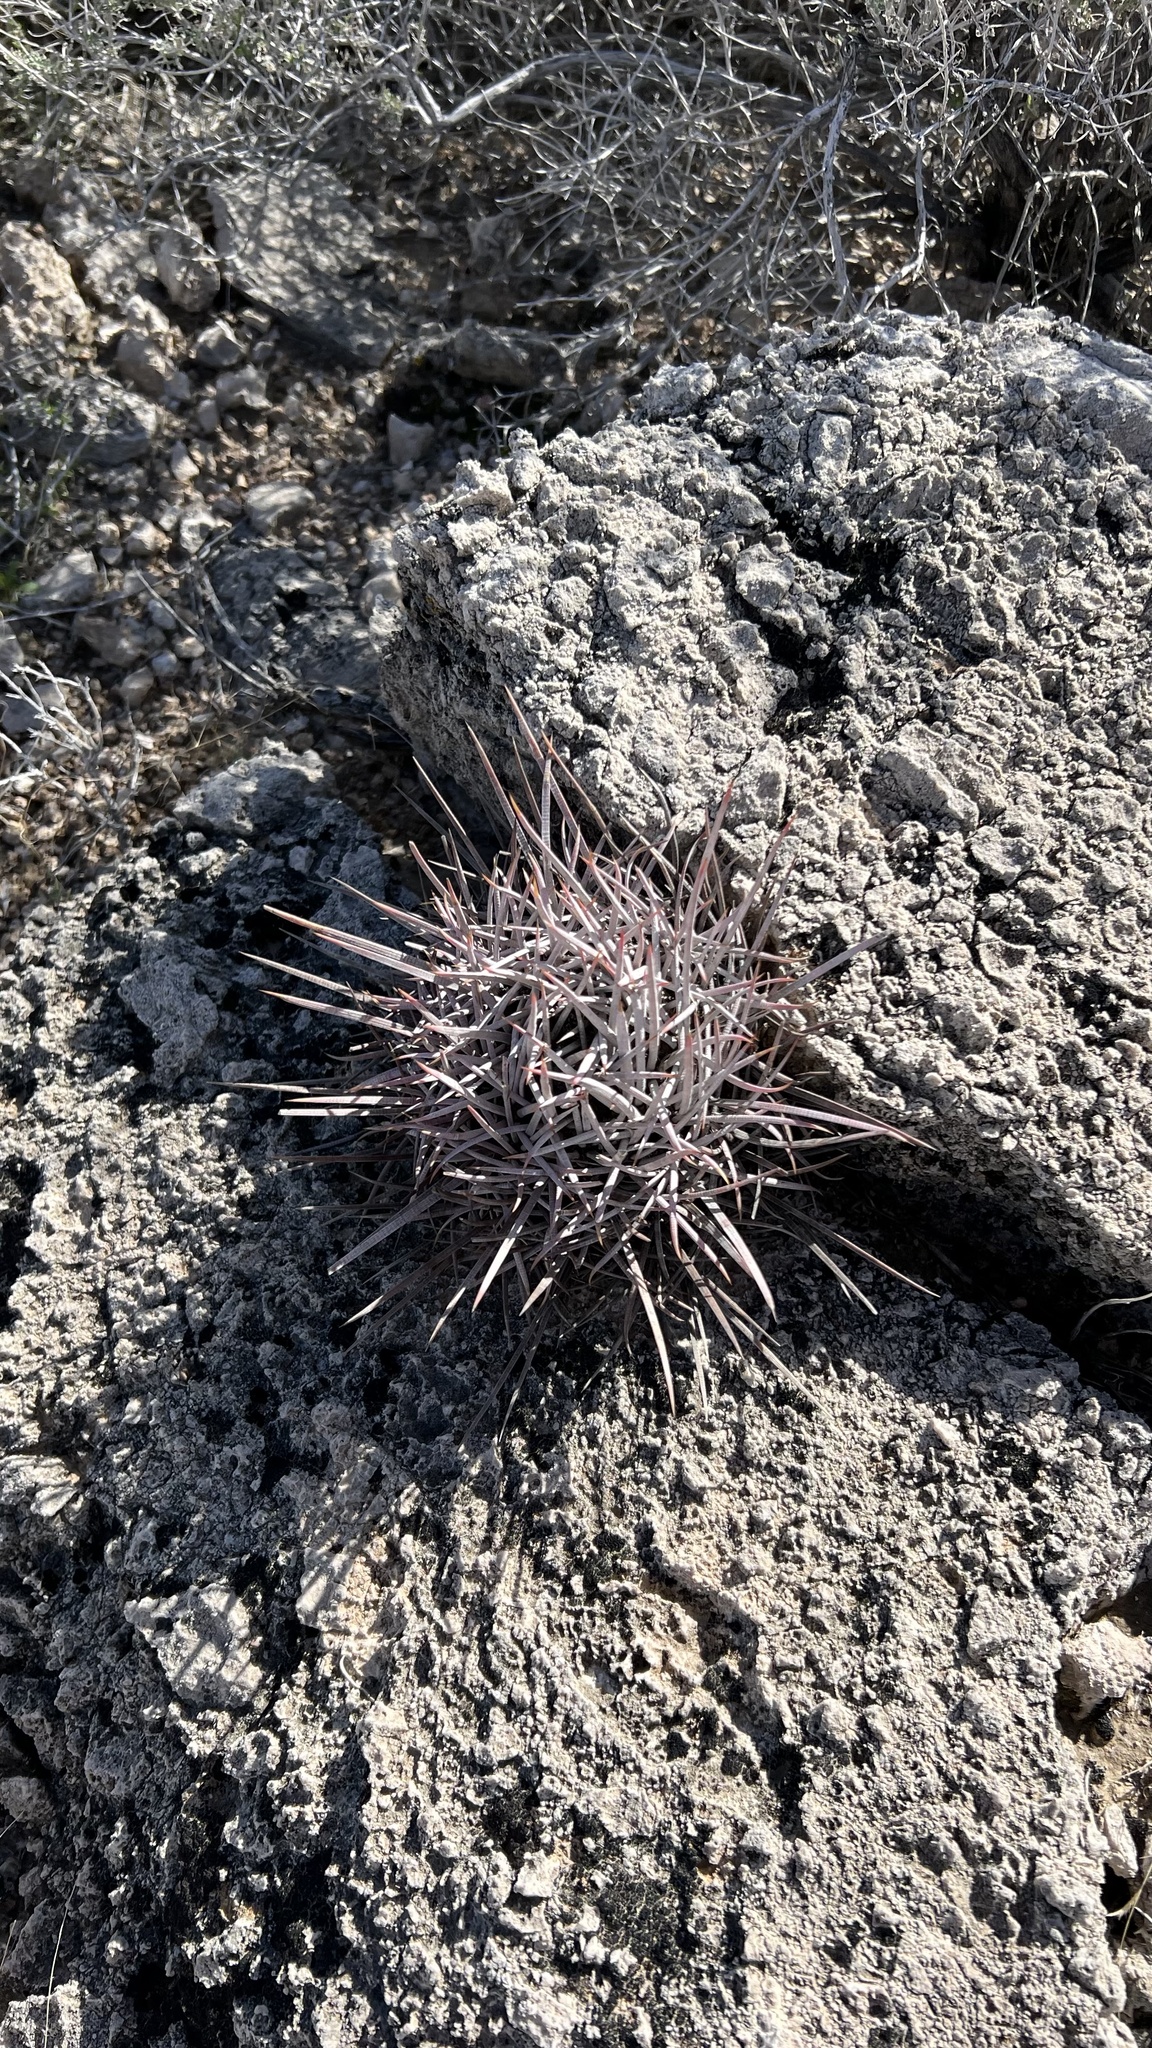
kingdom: Plantae
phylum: Tracheophyta
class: Magnoliopsida
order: Caryophyllales
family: Cactaceae
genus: Echinocactus
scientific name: Echinocactus polycephalus
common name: Cottontop cactus
